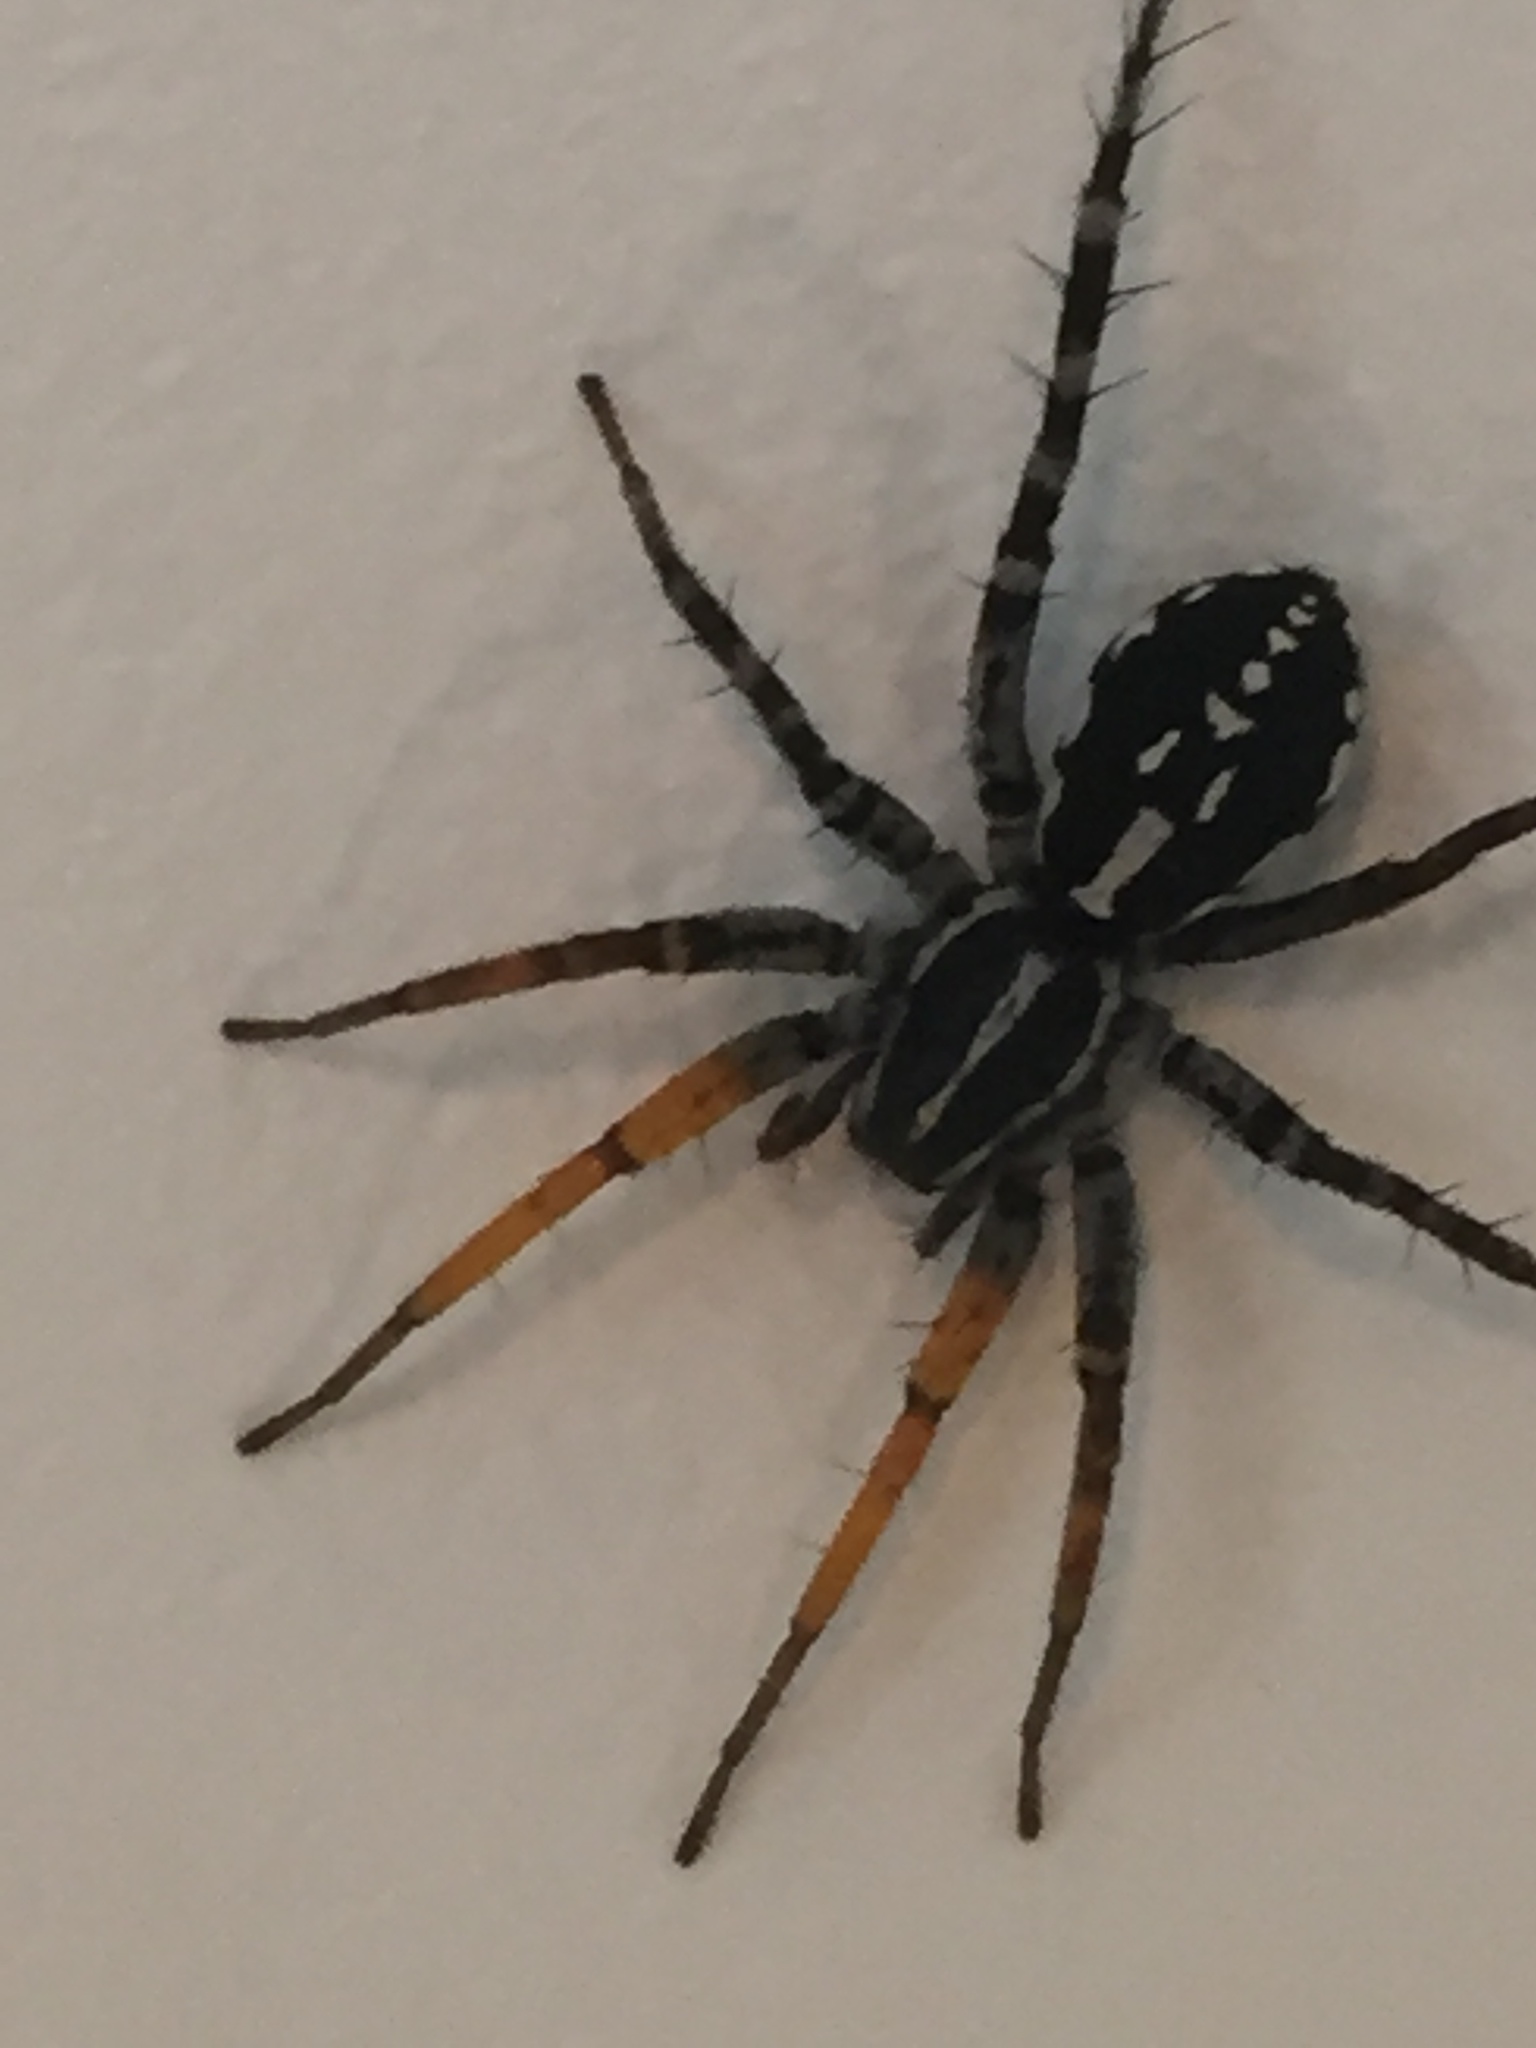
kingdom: Animalia
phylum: Arthropoda
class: Arachnida
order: Araneae
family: Corinnidae
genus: Nyssus
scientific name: Nyssus coloripes
